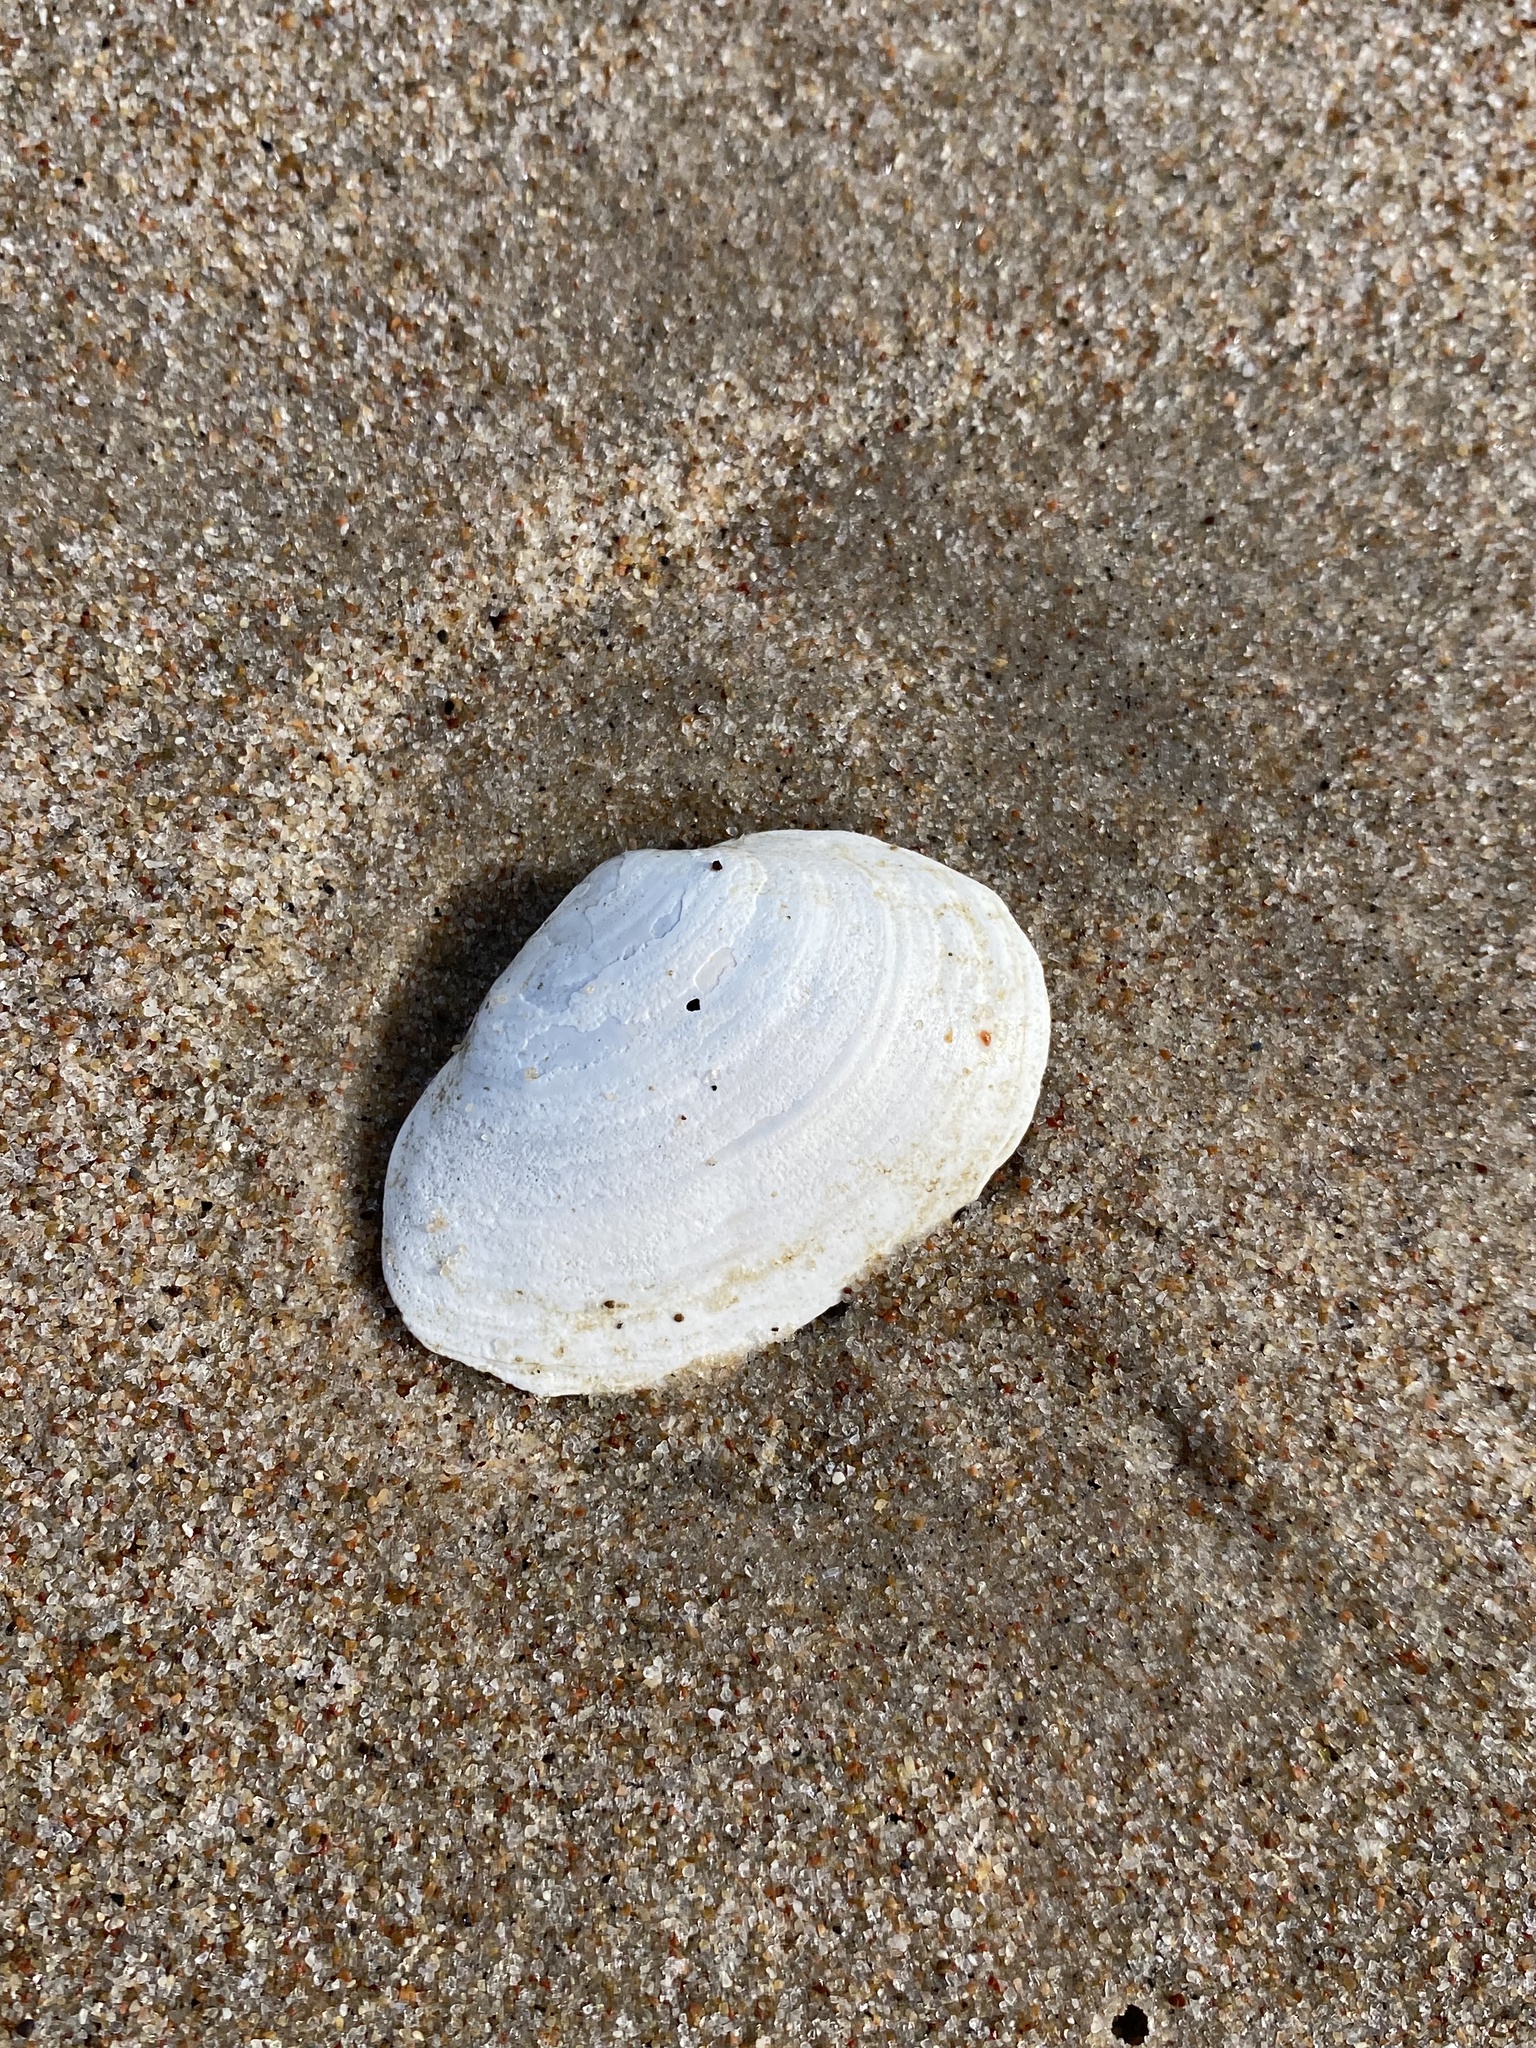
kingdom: Animalia
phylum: Mollusca
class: Bivalvia
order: Myida
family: Myidae
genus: Mya
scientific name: Mya arenaria
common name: Soft-shelled clam
